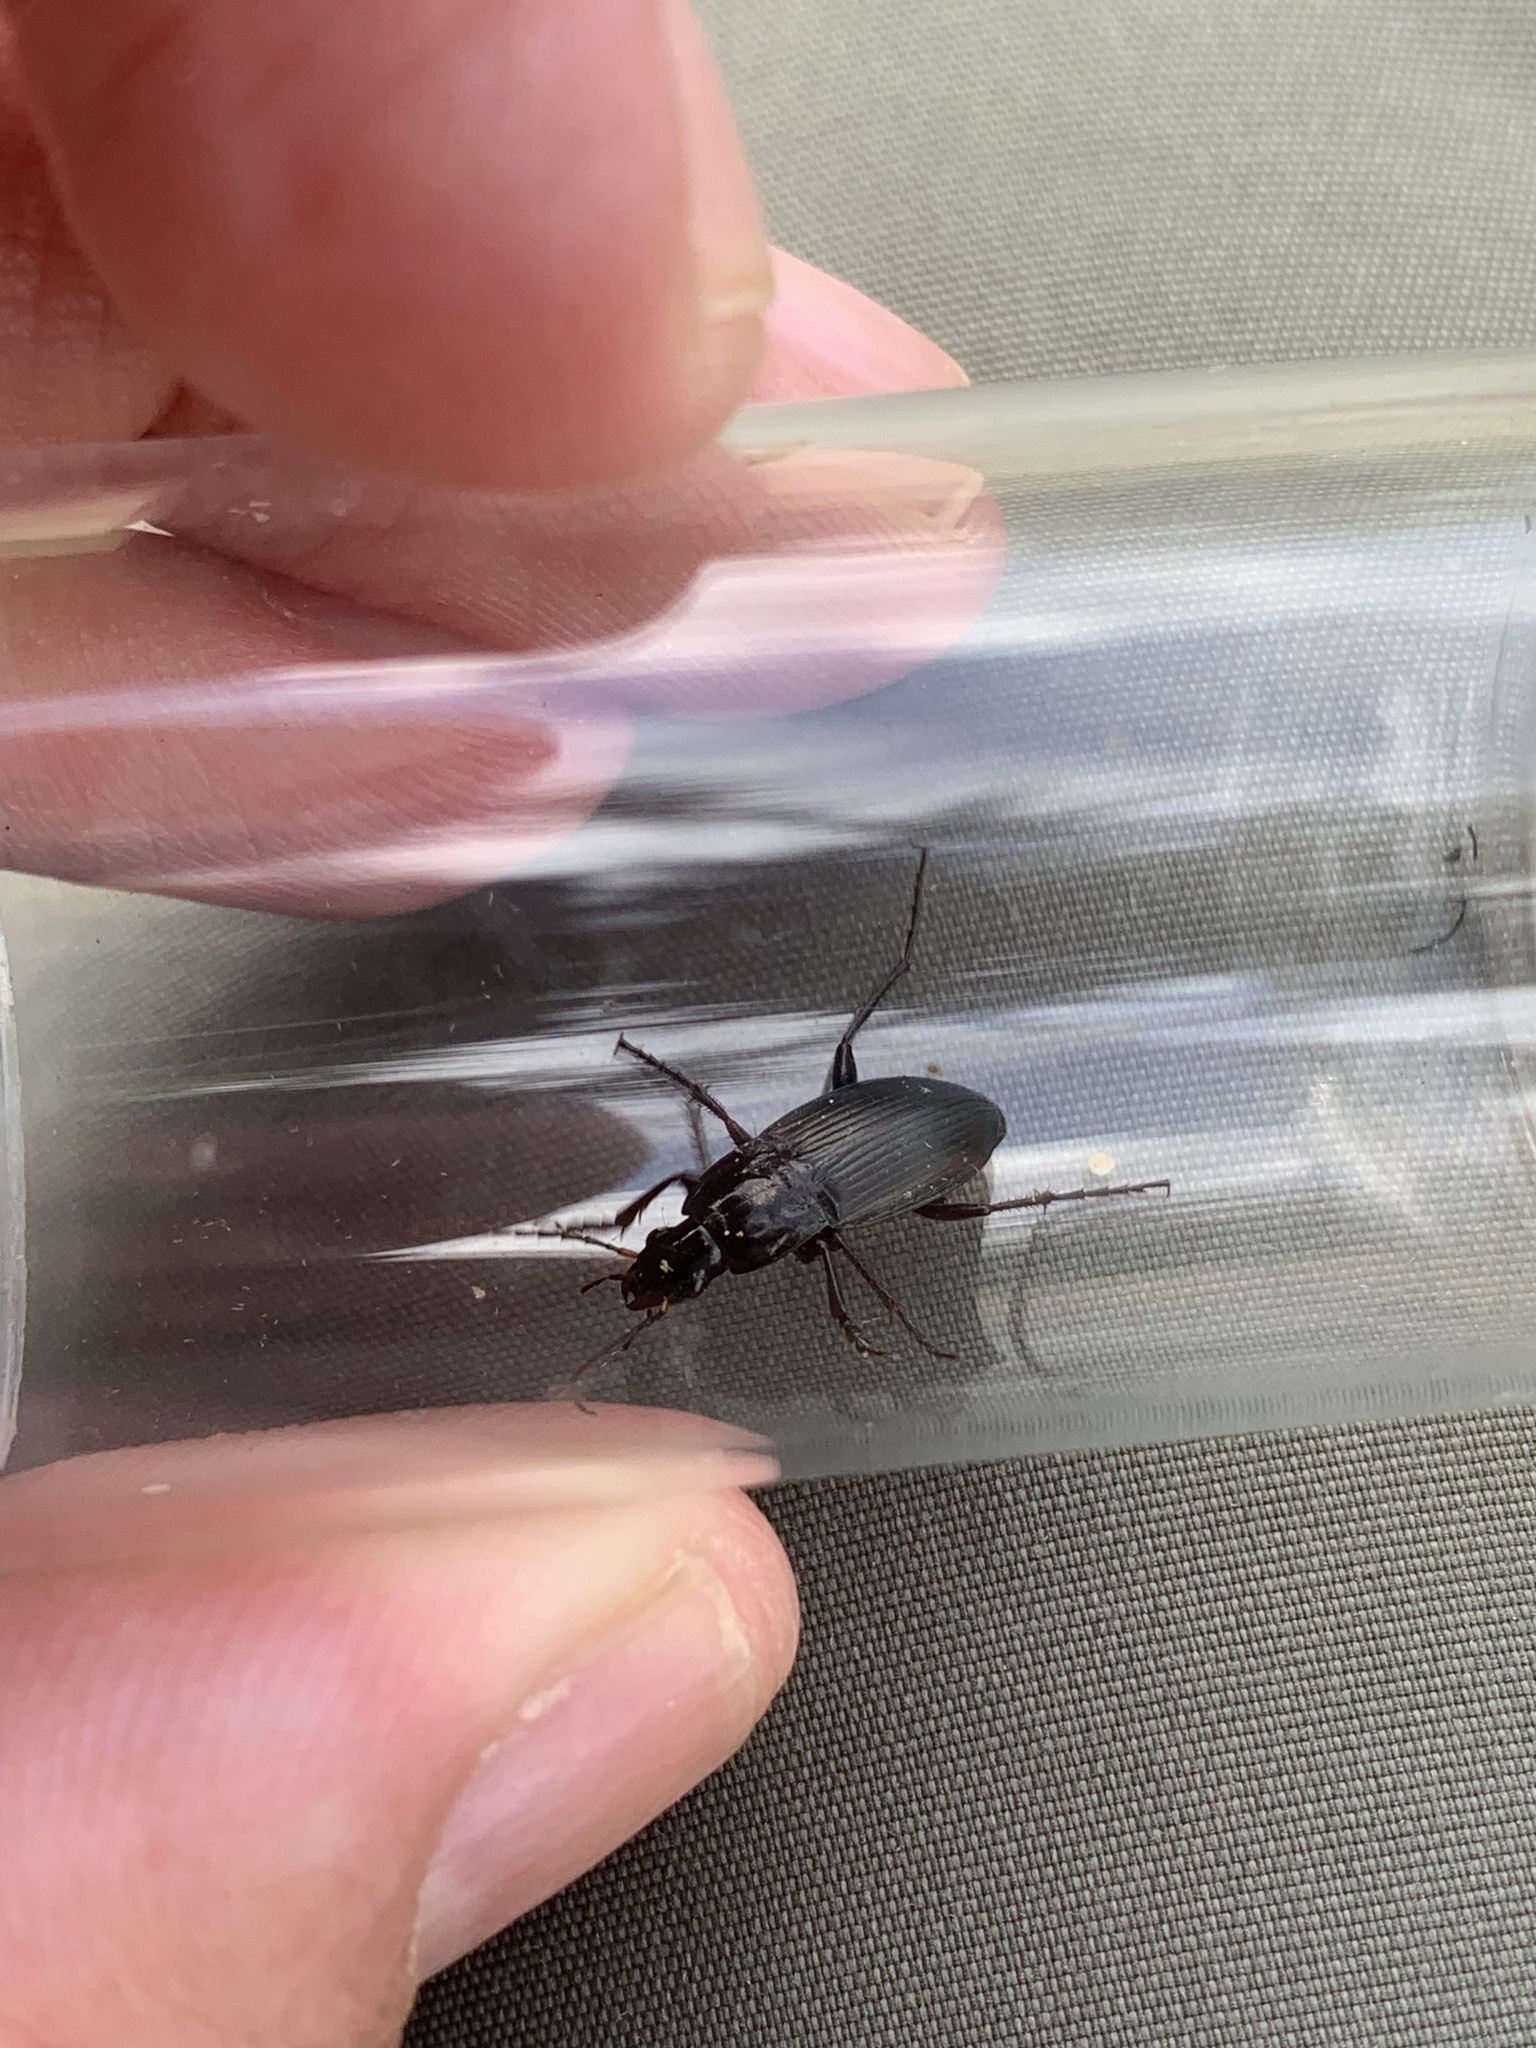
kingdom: Animalia
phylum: Arthropoda
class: Insecta
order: Coleoptera
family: Carabidae
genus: Calathus
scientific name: Calathus fuscipes
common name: Dark-footed harp ground beetle
